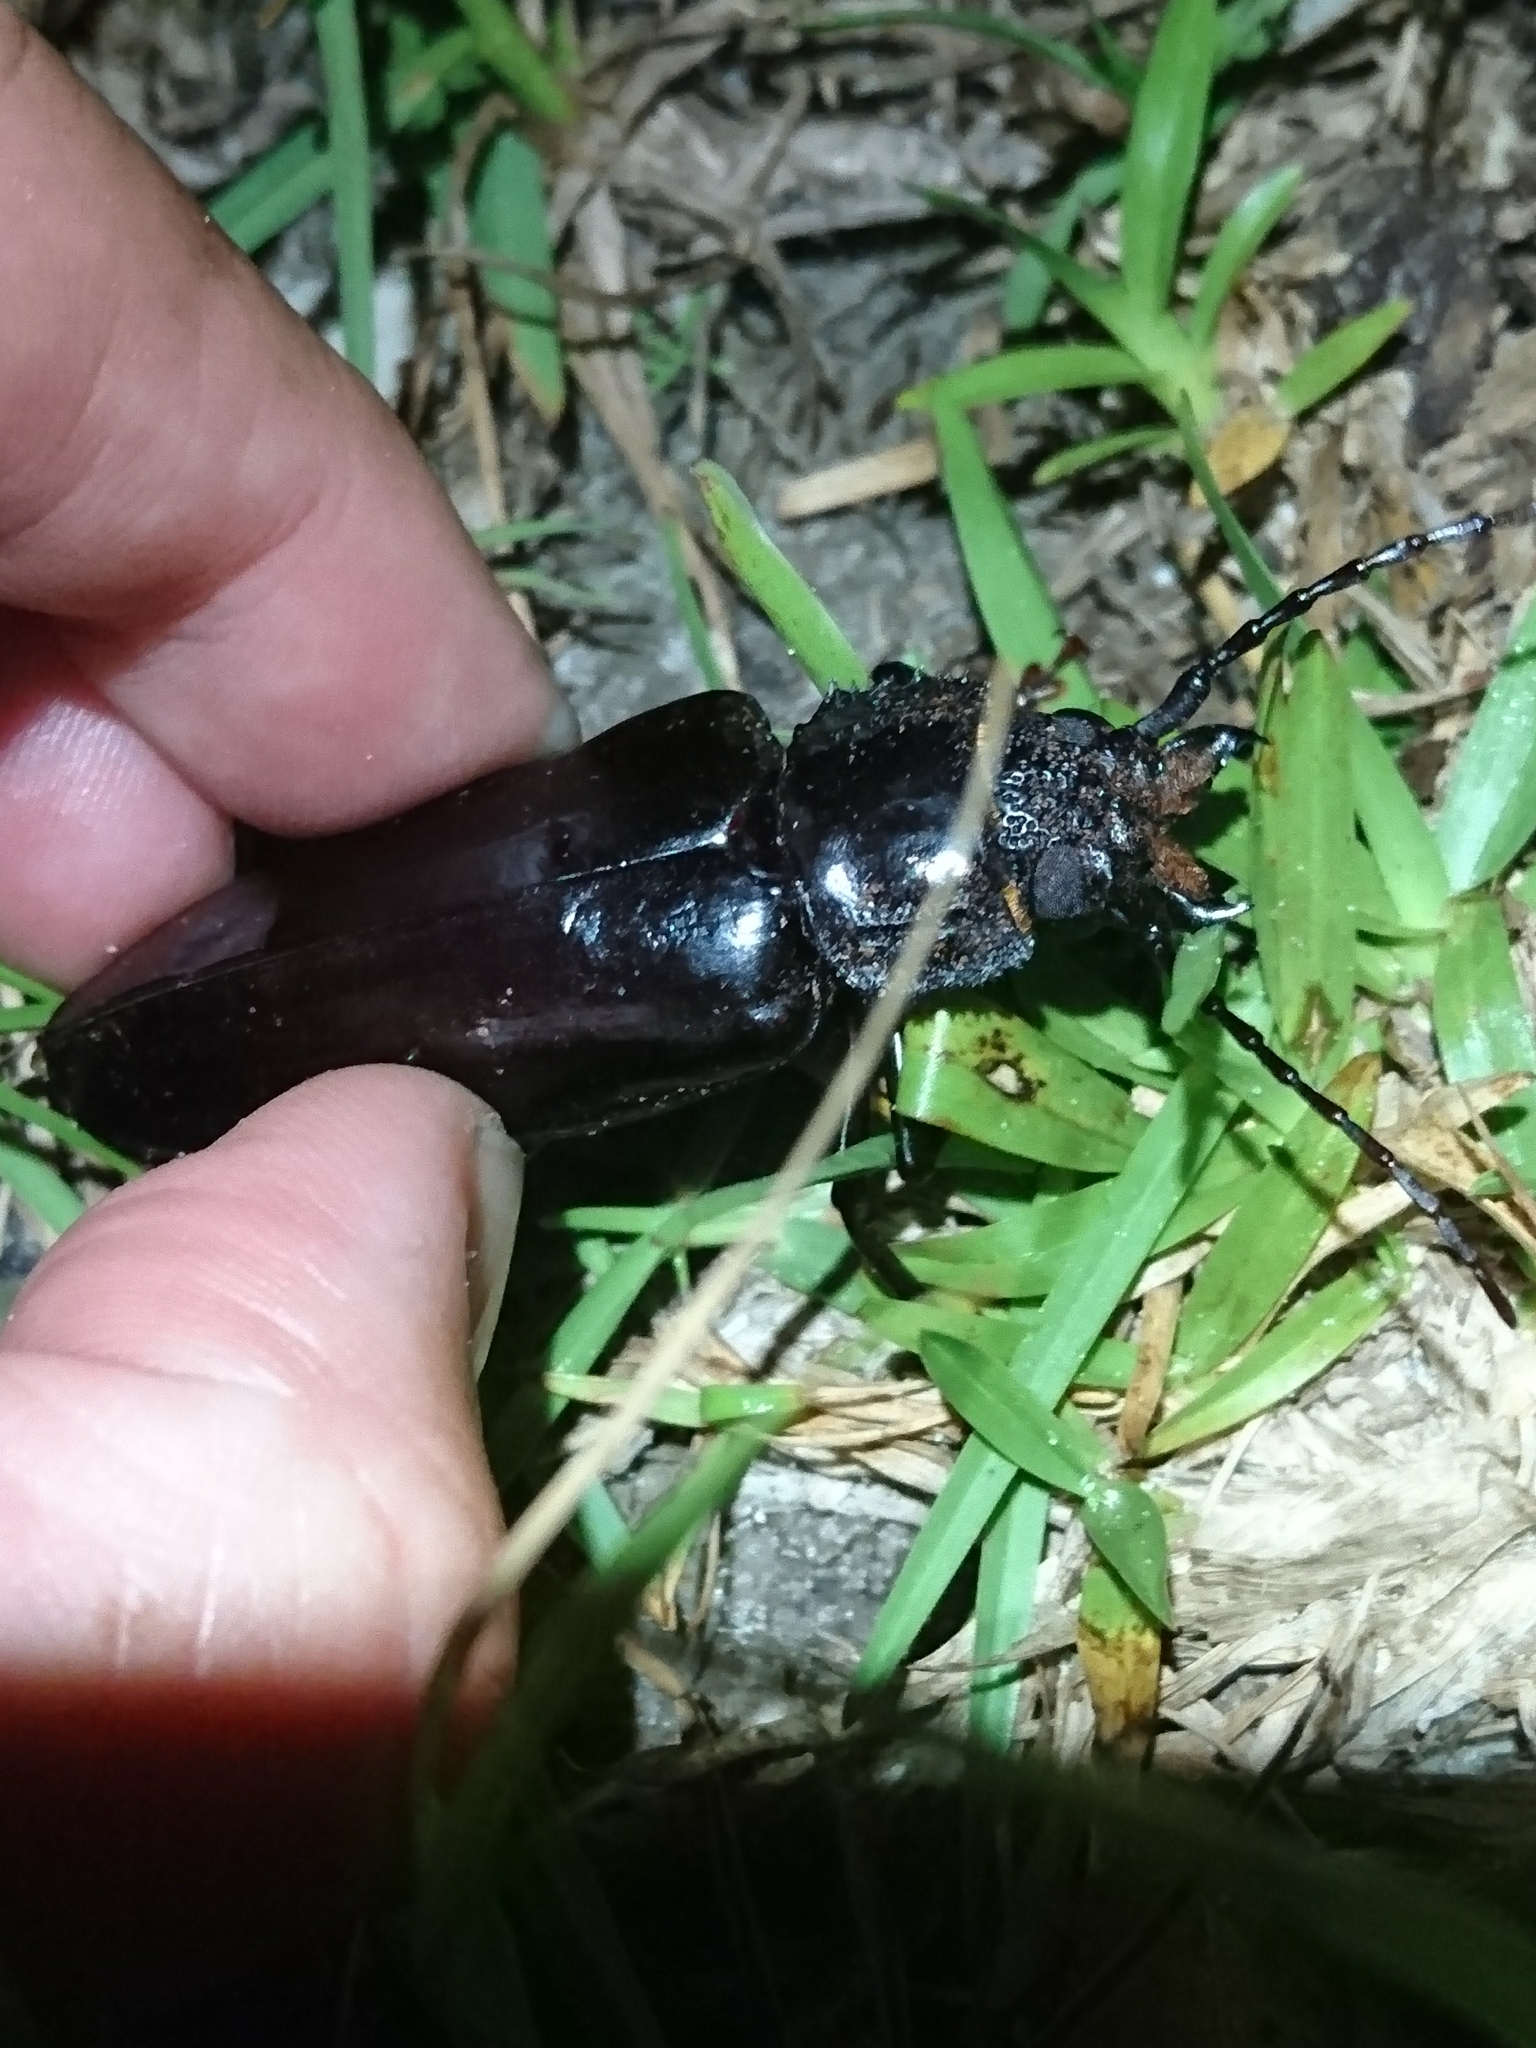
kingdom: Animalia
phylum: Arthropoda
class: Insecta
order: Coleoptera
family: Cerambycidae
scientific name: Cerambycidae
